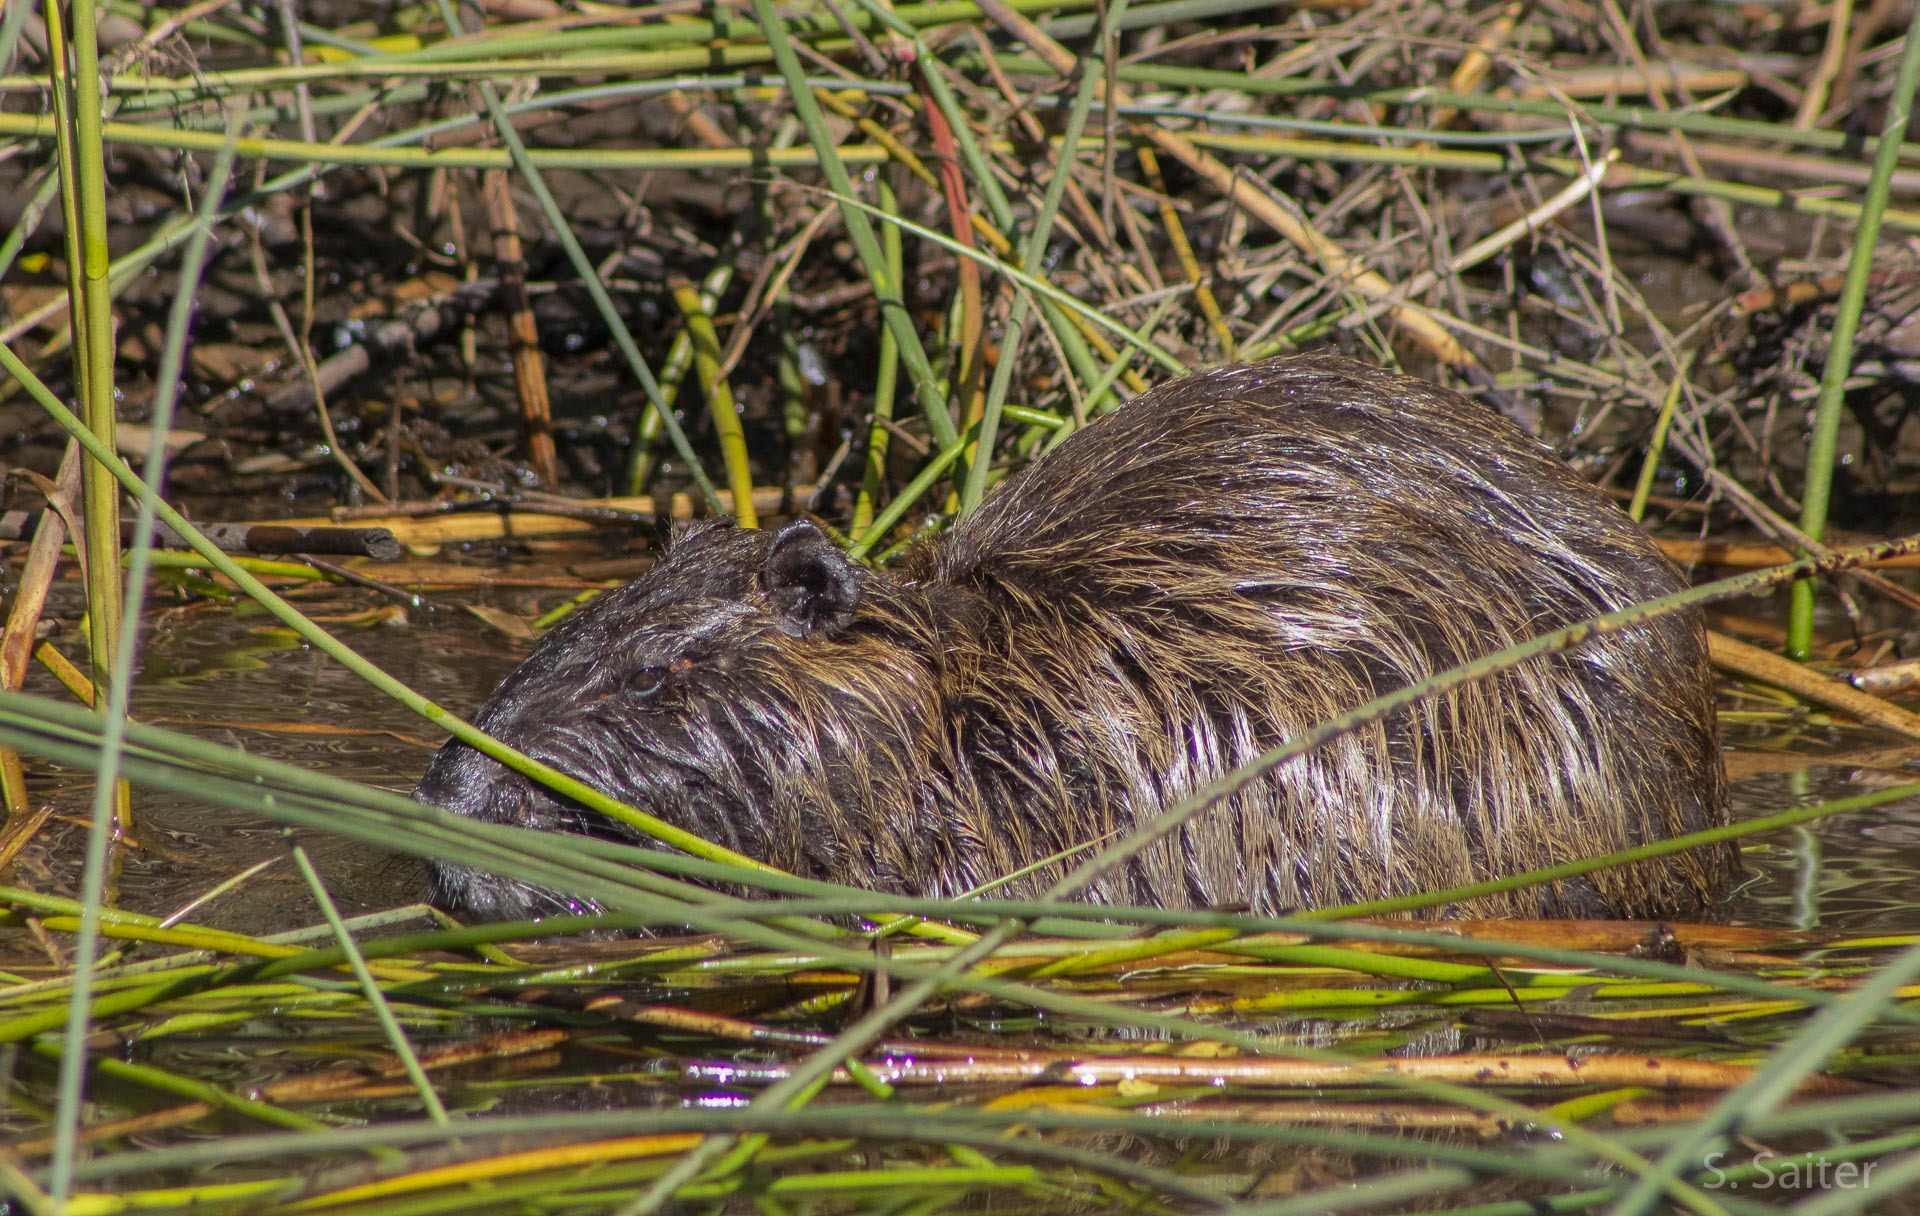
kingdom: Animalia
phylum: Chordata
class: Mammalia
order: Rodentia
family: Myocastoridae
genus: Myocastor
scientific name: Myocastor coypus
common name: Coypu
